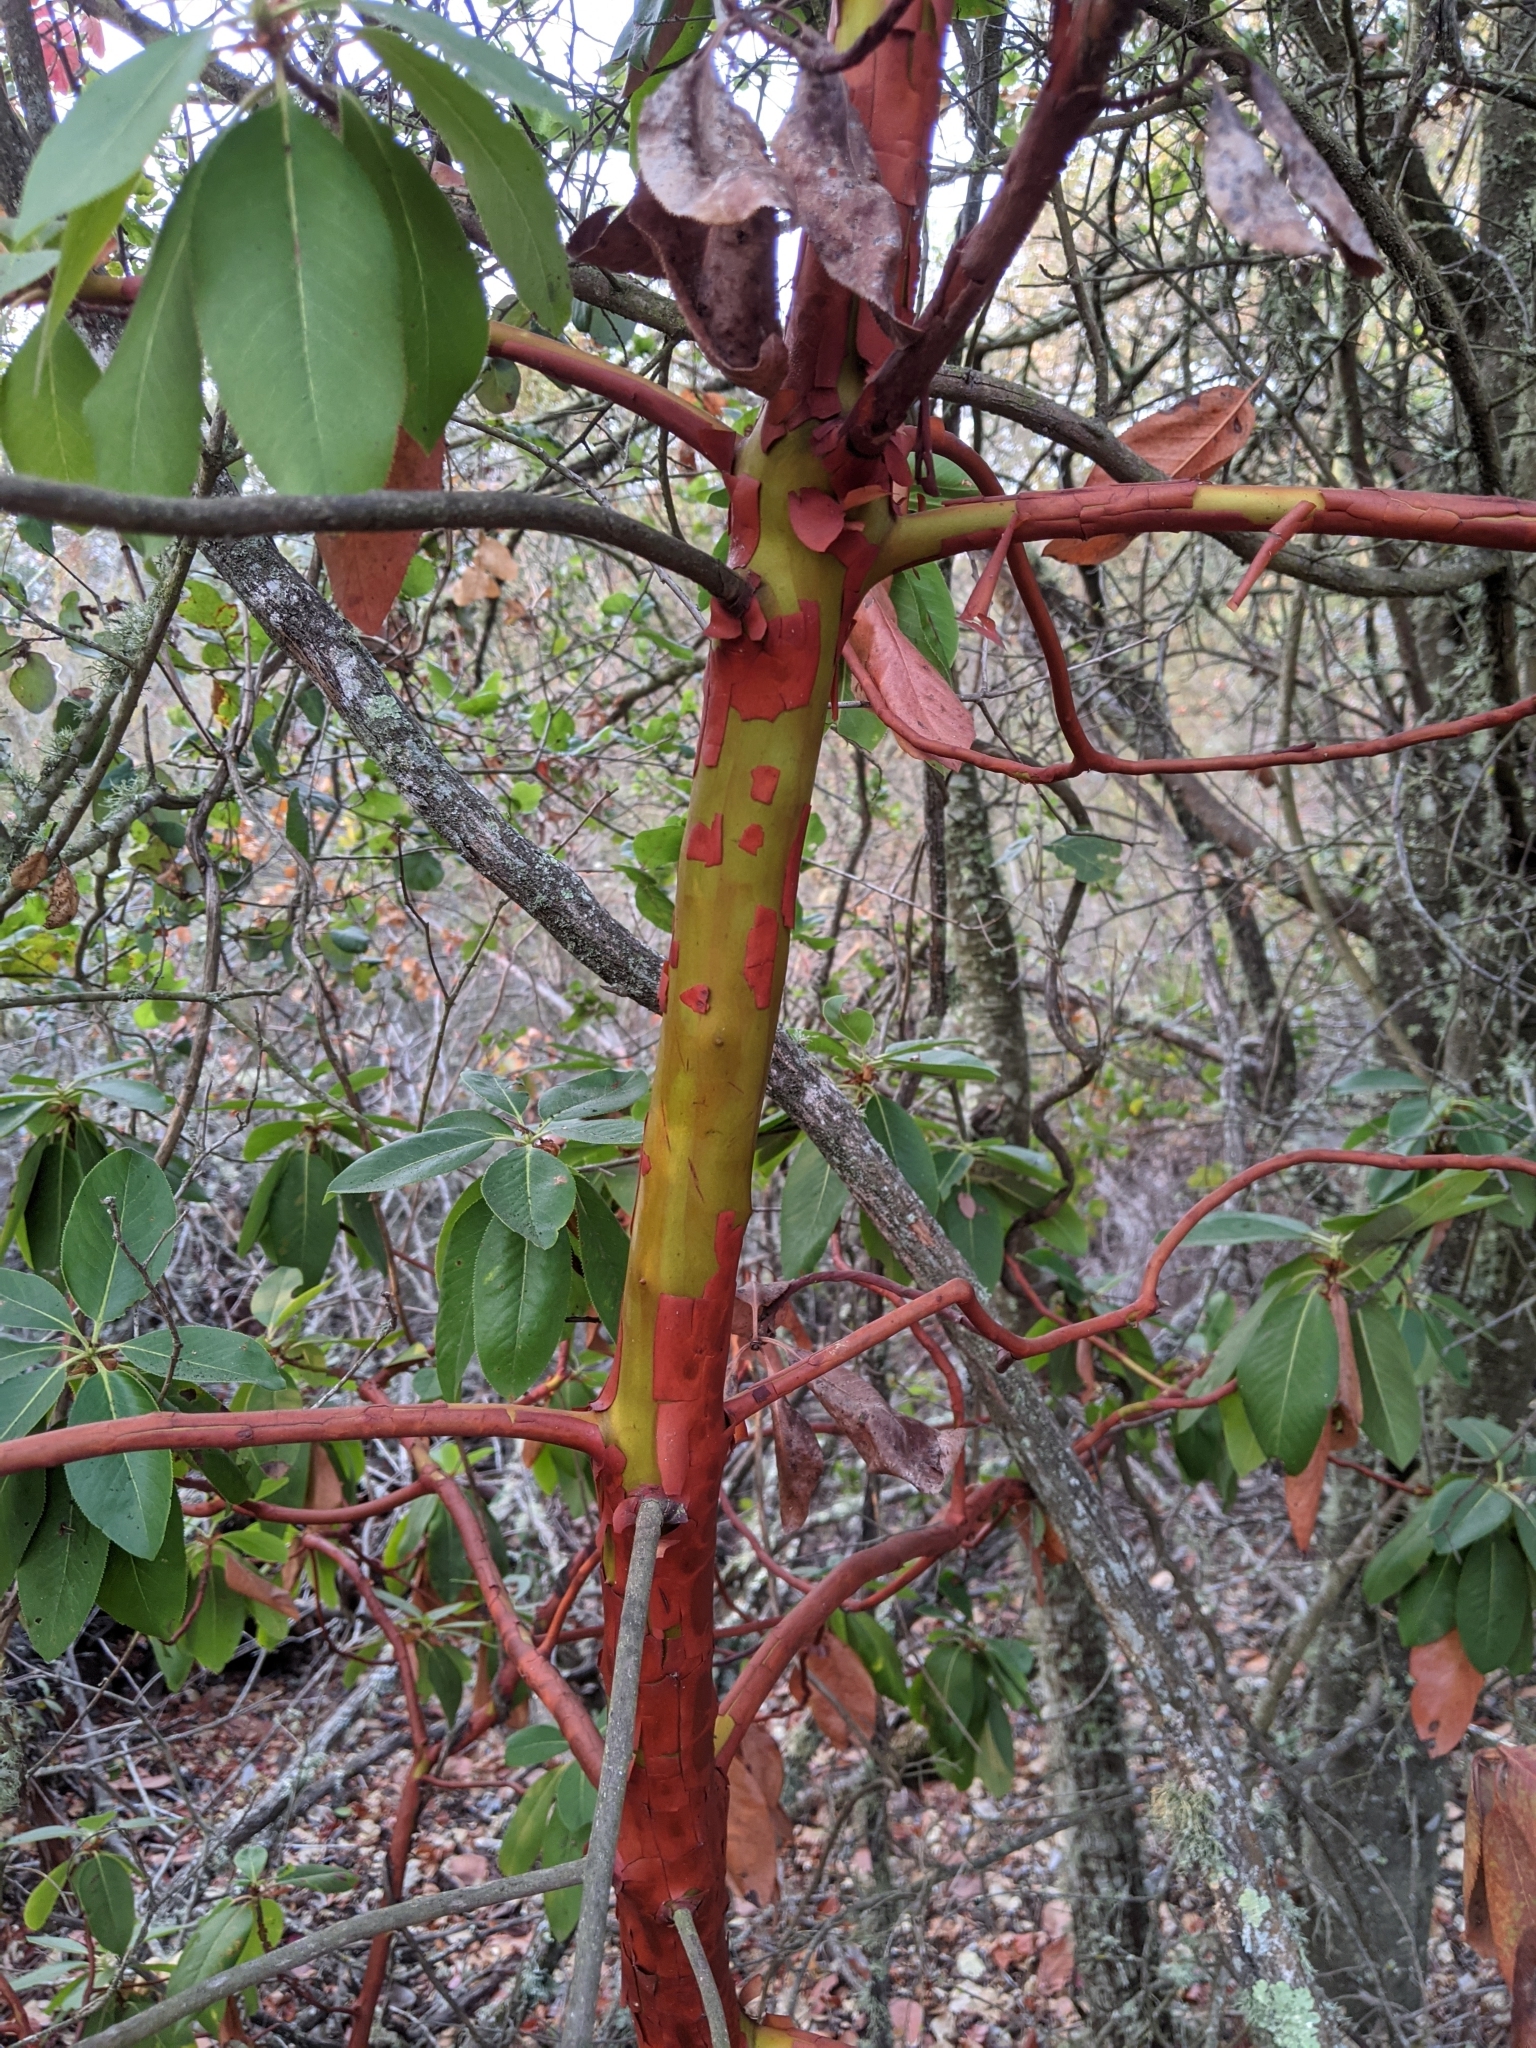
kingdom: Plantae
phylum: Tracheophyta
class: Magnoliopsida
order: Ericales
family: Ericaceae
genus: Arbutus
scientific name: Arbutus menziesii
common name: Pacific madrone
